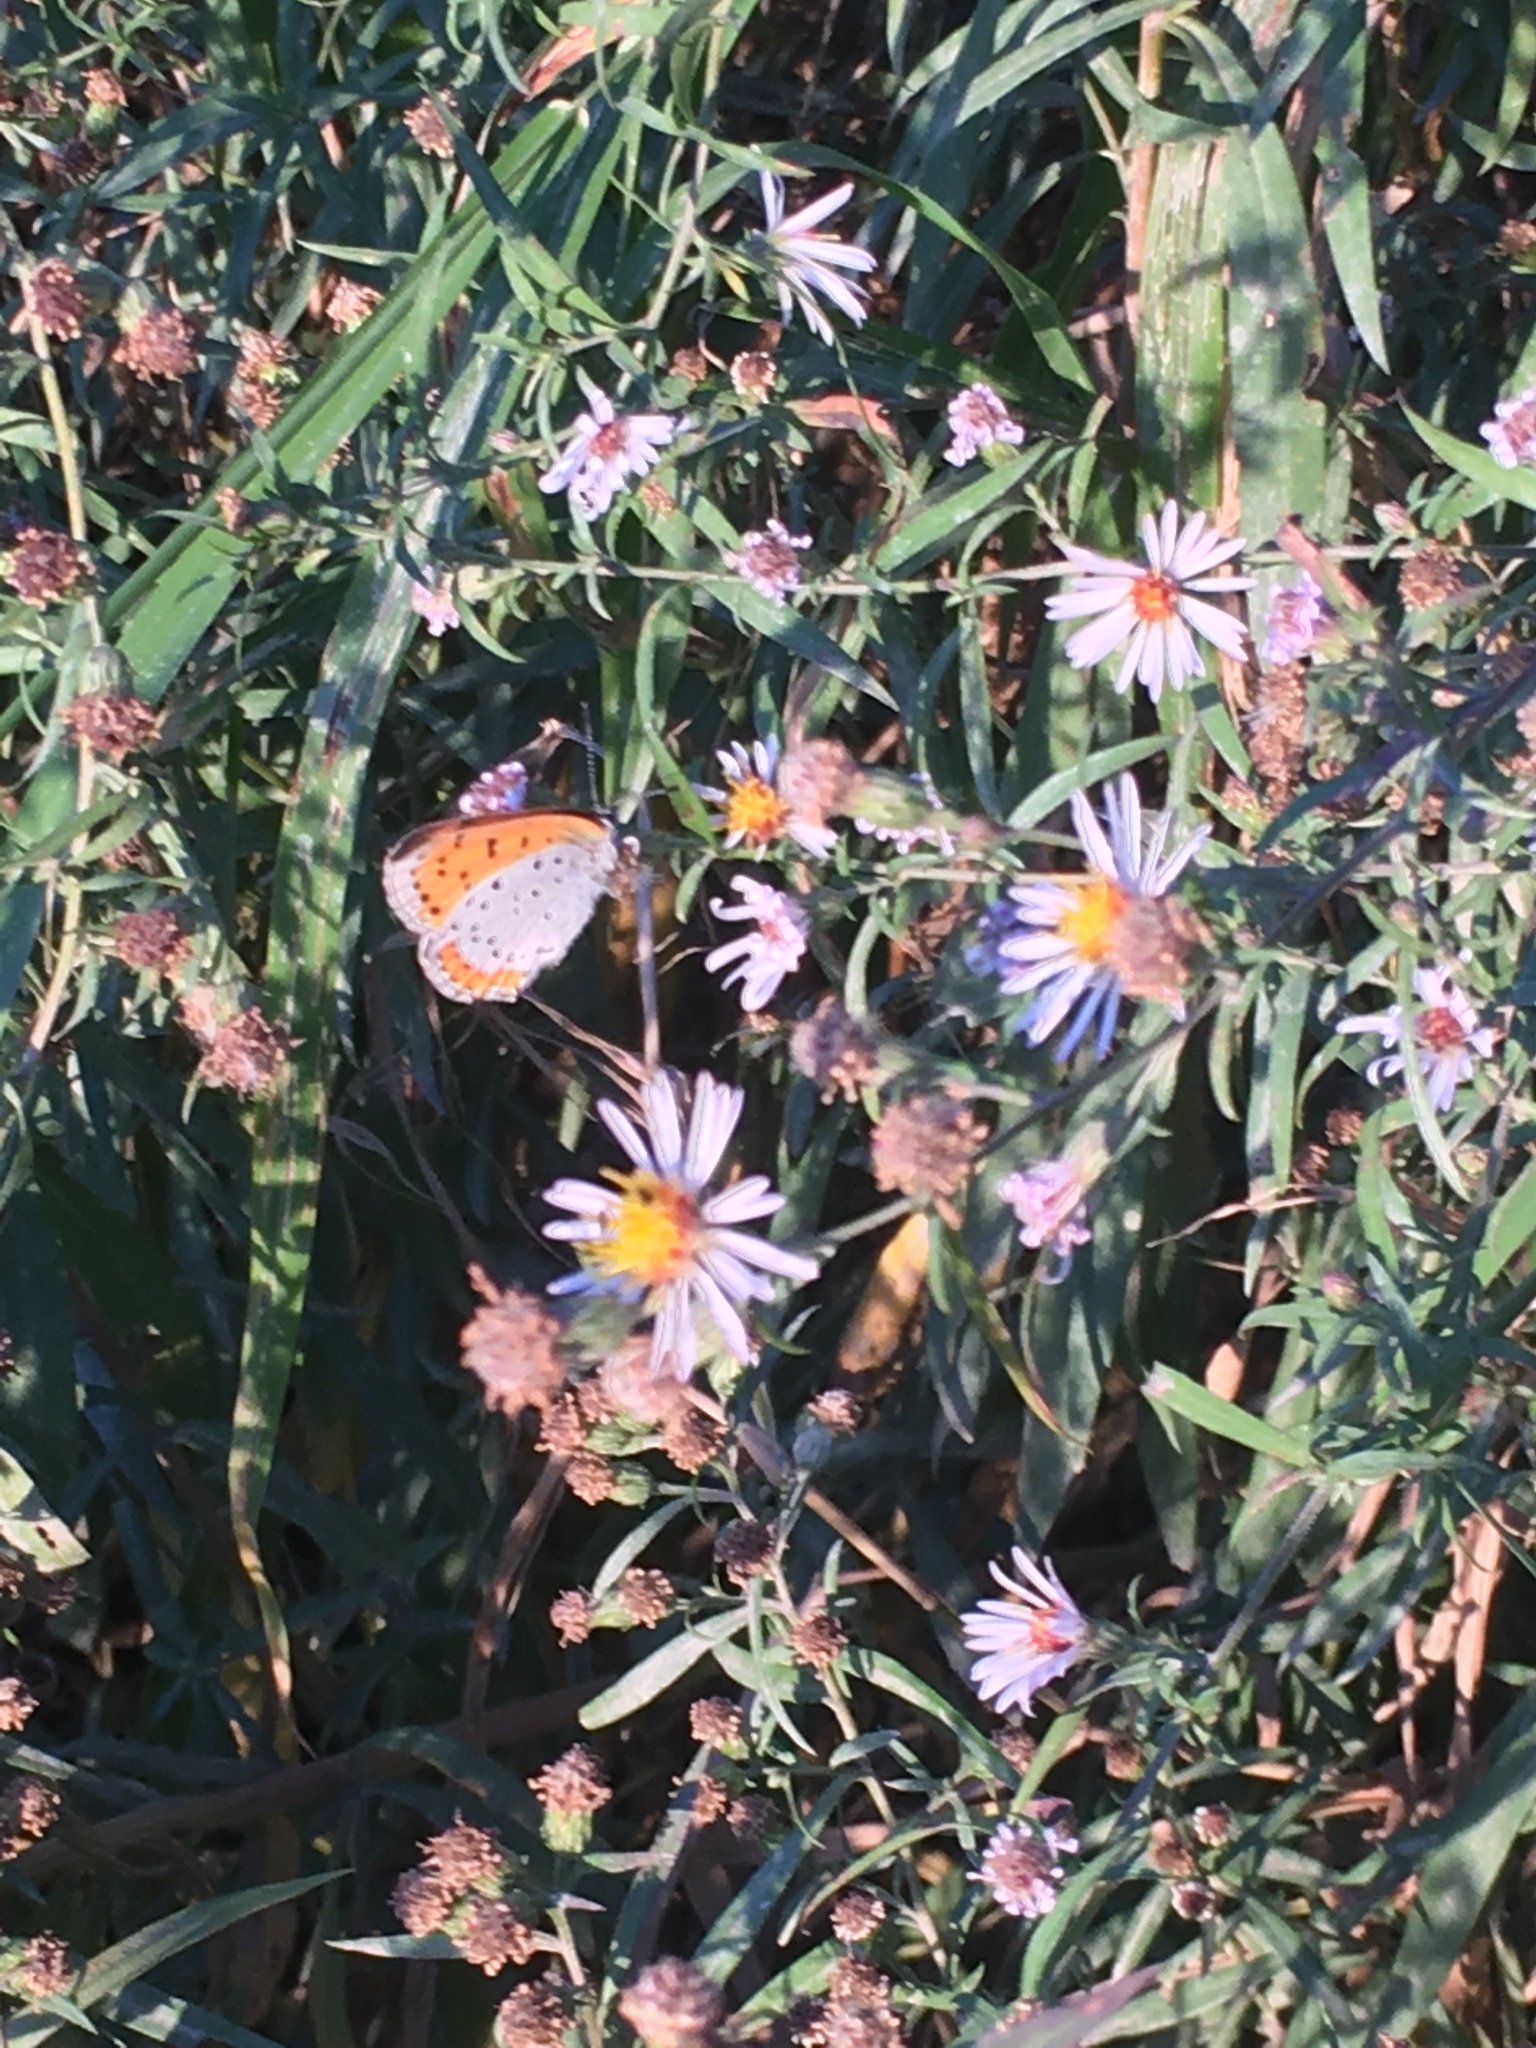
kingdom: Animalia
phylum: Arthropoda
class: Insecta
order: Lepidoptera
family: Lycaenidae
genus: Tharsalea
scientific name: Tharsalea hyllus
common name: Bronze copper
